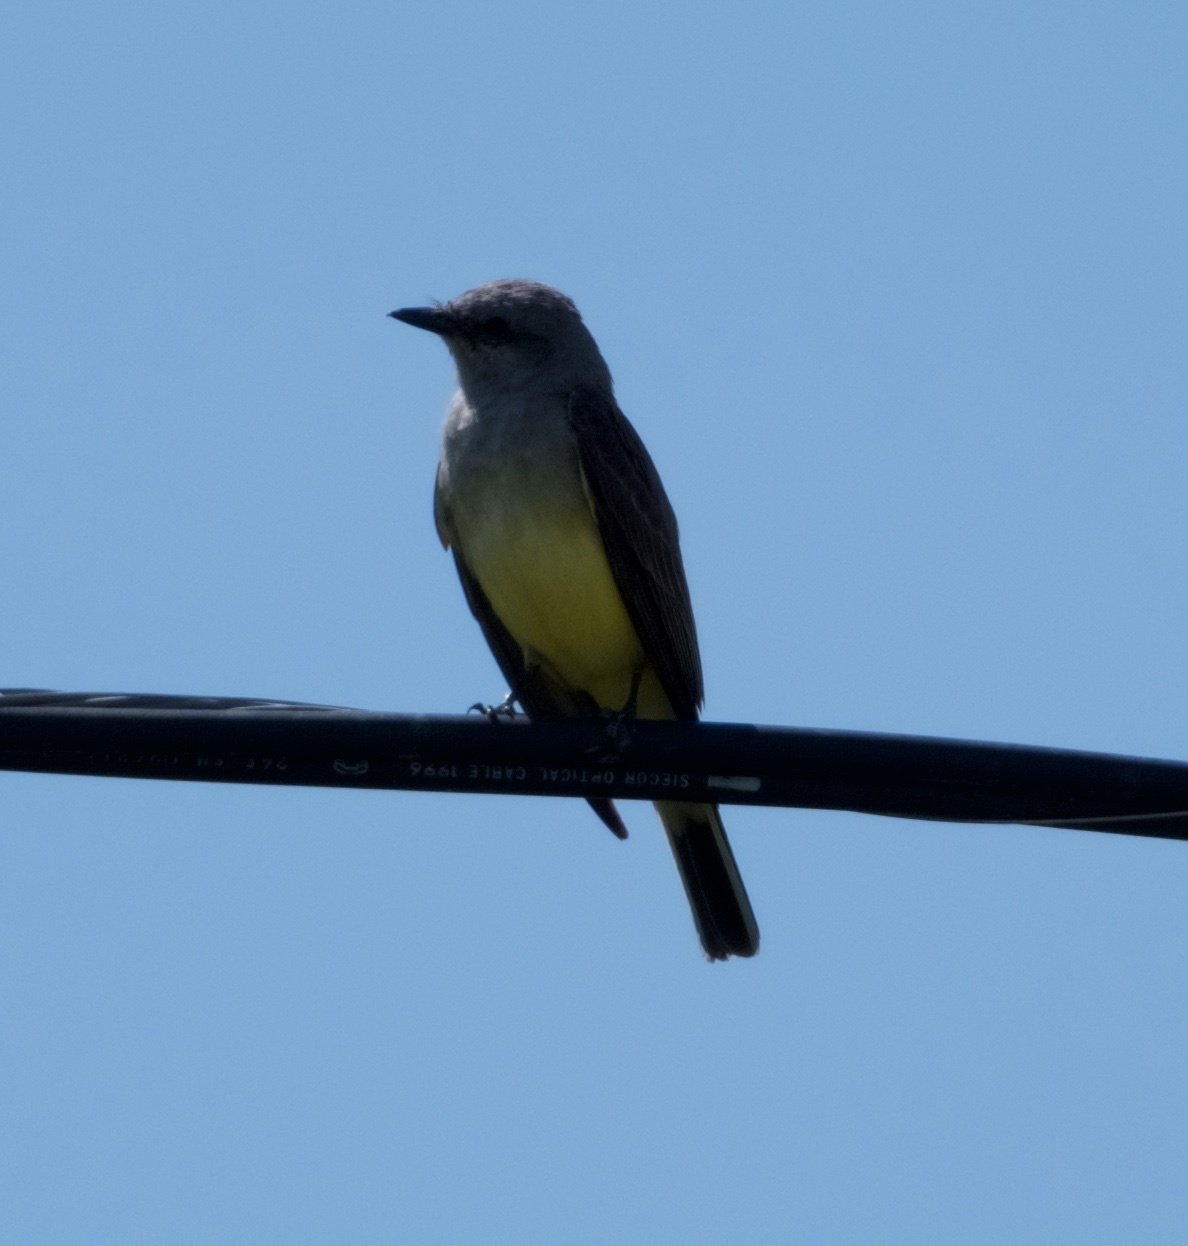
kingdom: Animalia
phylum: Chordata
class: Aves
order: Passeriformes
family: Tyrannidae
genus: Tyrannus
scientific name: Tyrannus verticalis
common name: Western kingbird
